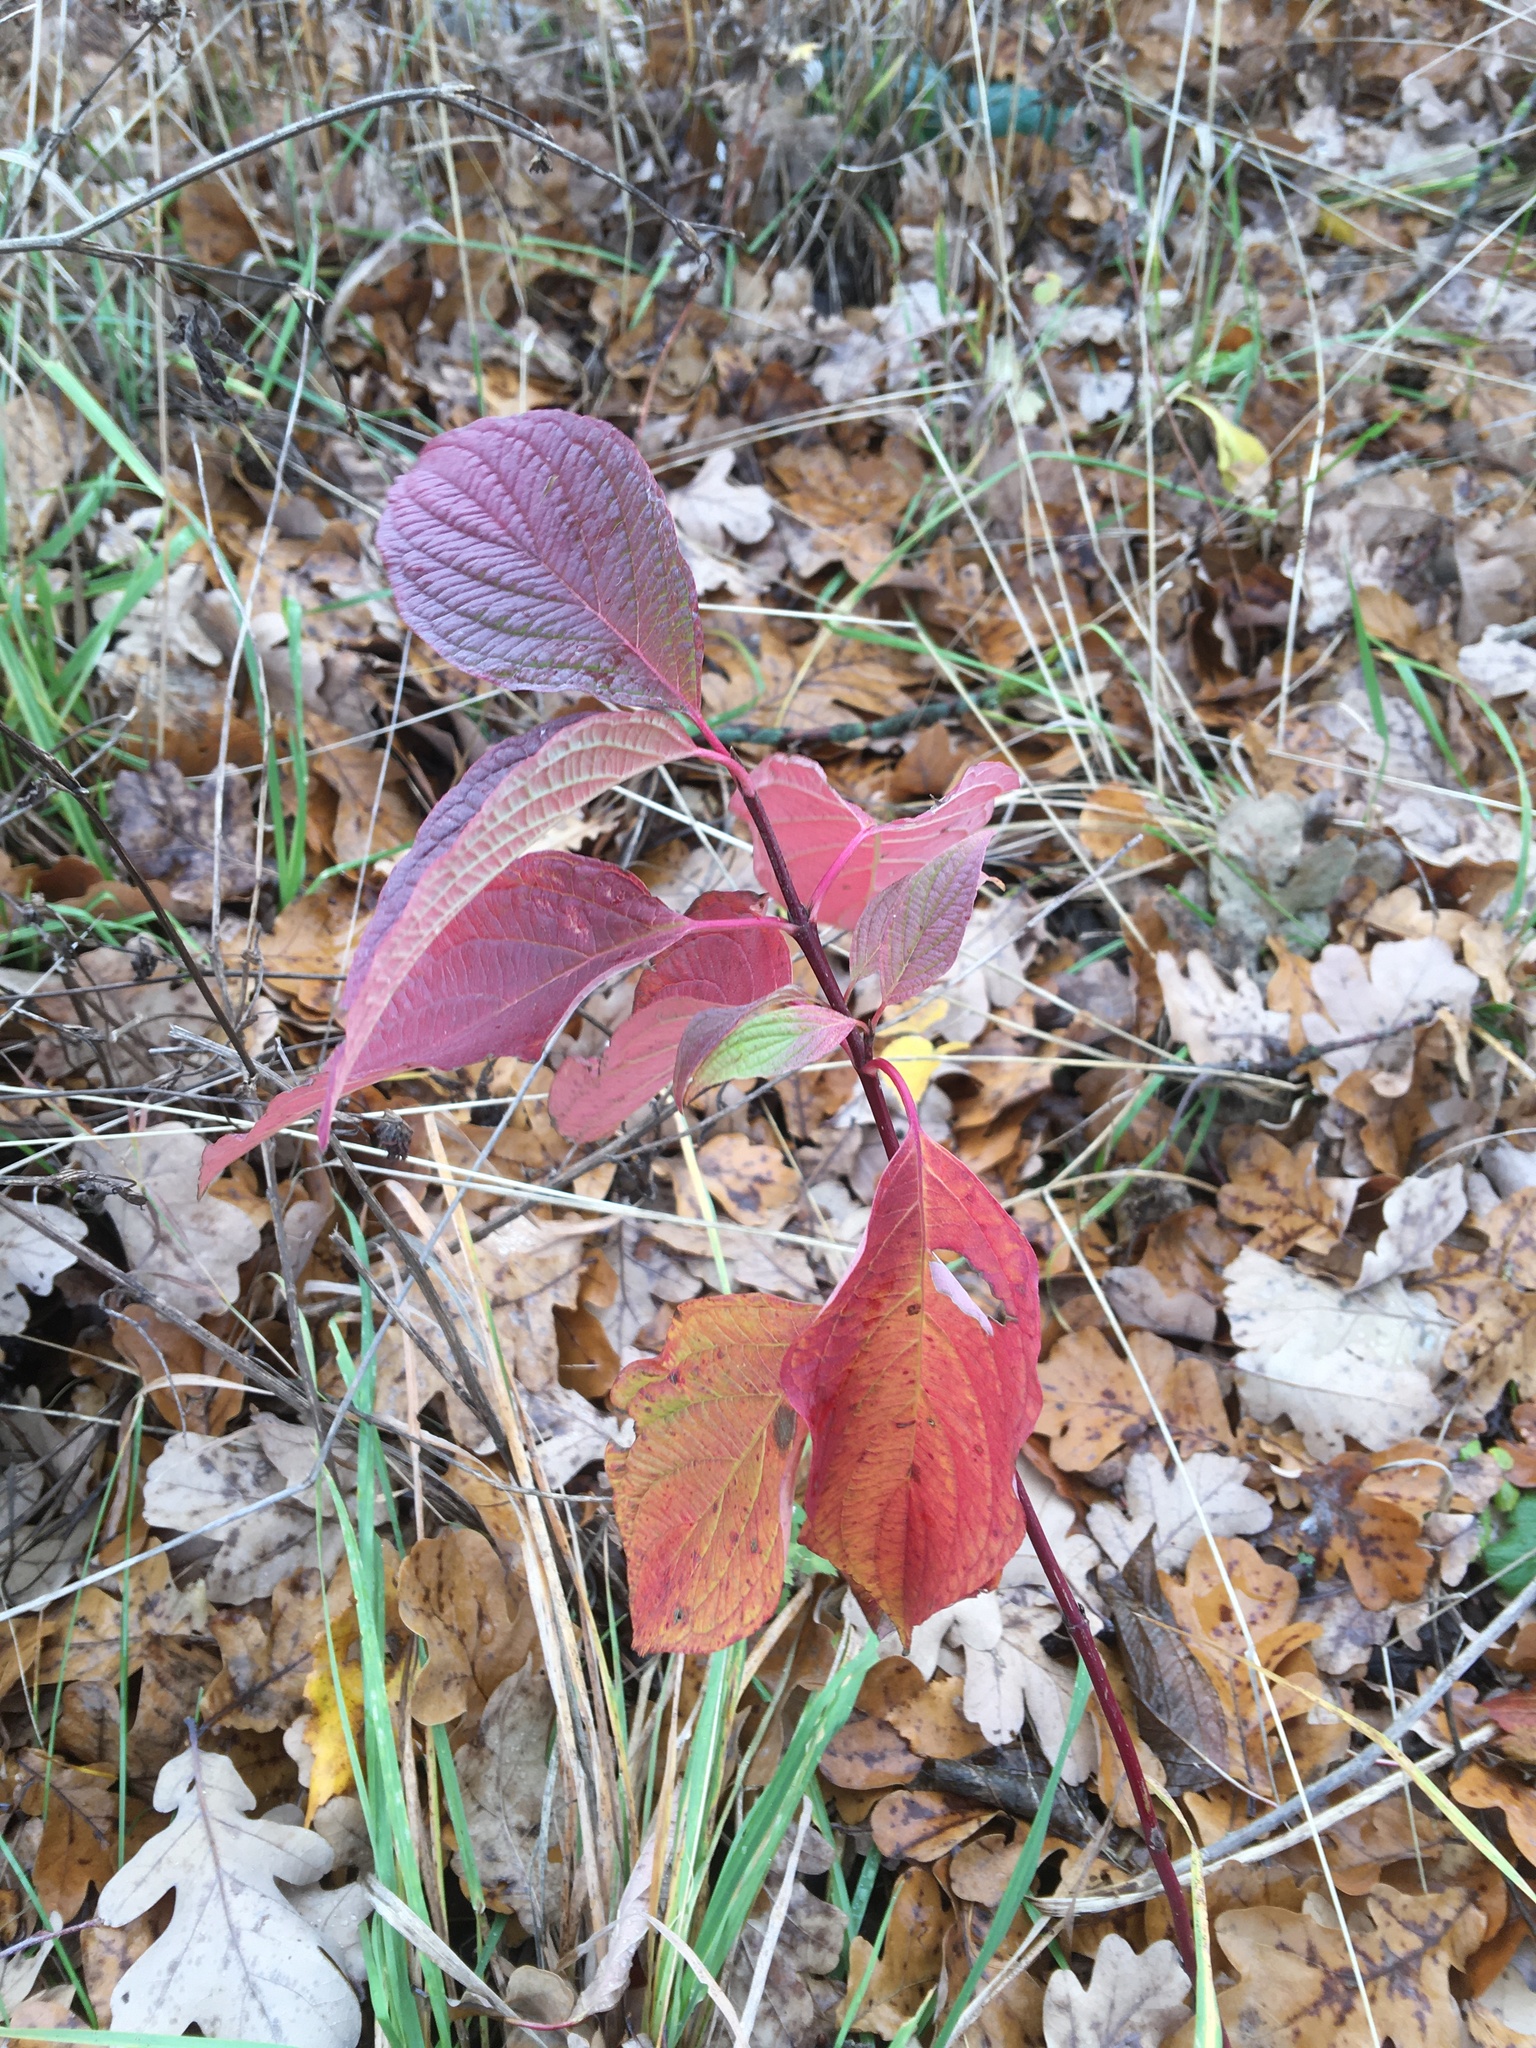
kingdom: Plantae
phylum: Tracheophyta
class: Magnoliopsida
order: Cornales
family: Cornaceae
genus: Cornus
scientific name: Cornus sericea
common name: Red-osier dogwood
